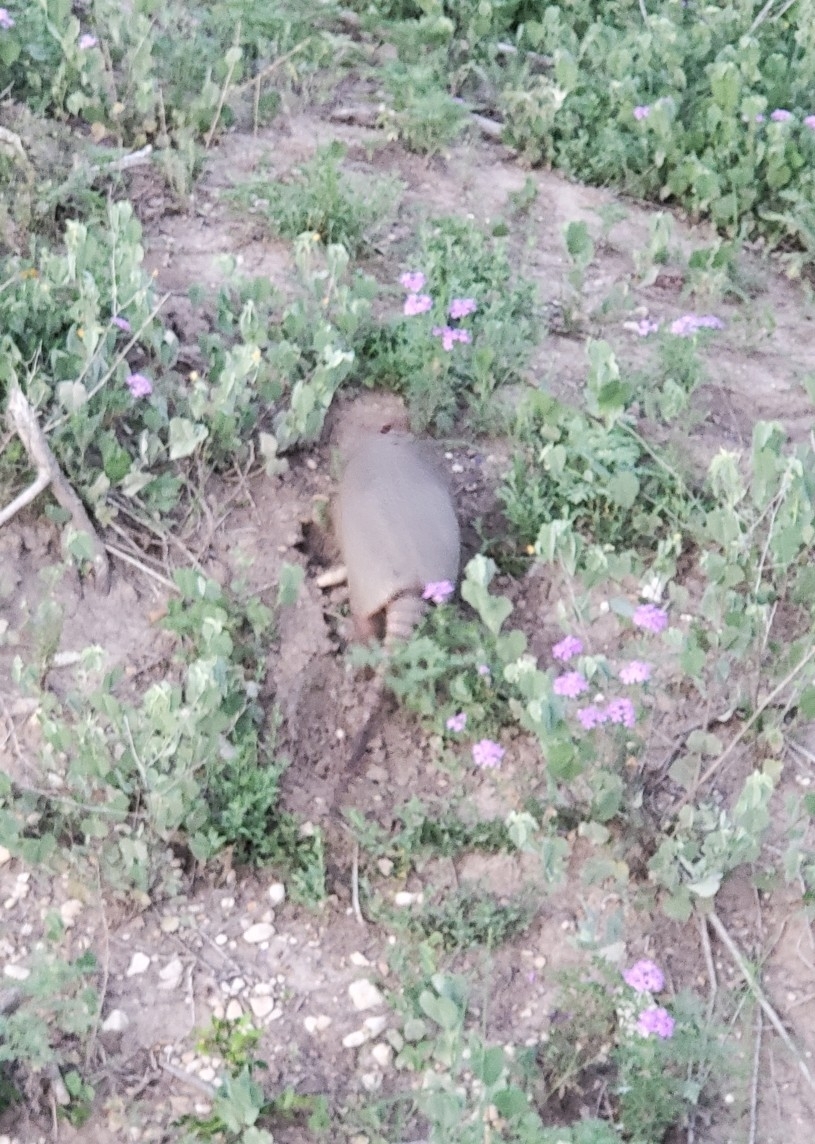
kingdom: Animalia
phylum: Chordata
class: Mammalia
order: Cingulata
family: Dasypodidae
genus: Dasypus
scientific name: Dasypus novemcinctus
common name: Nine-banded armadillo
